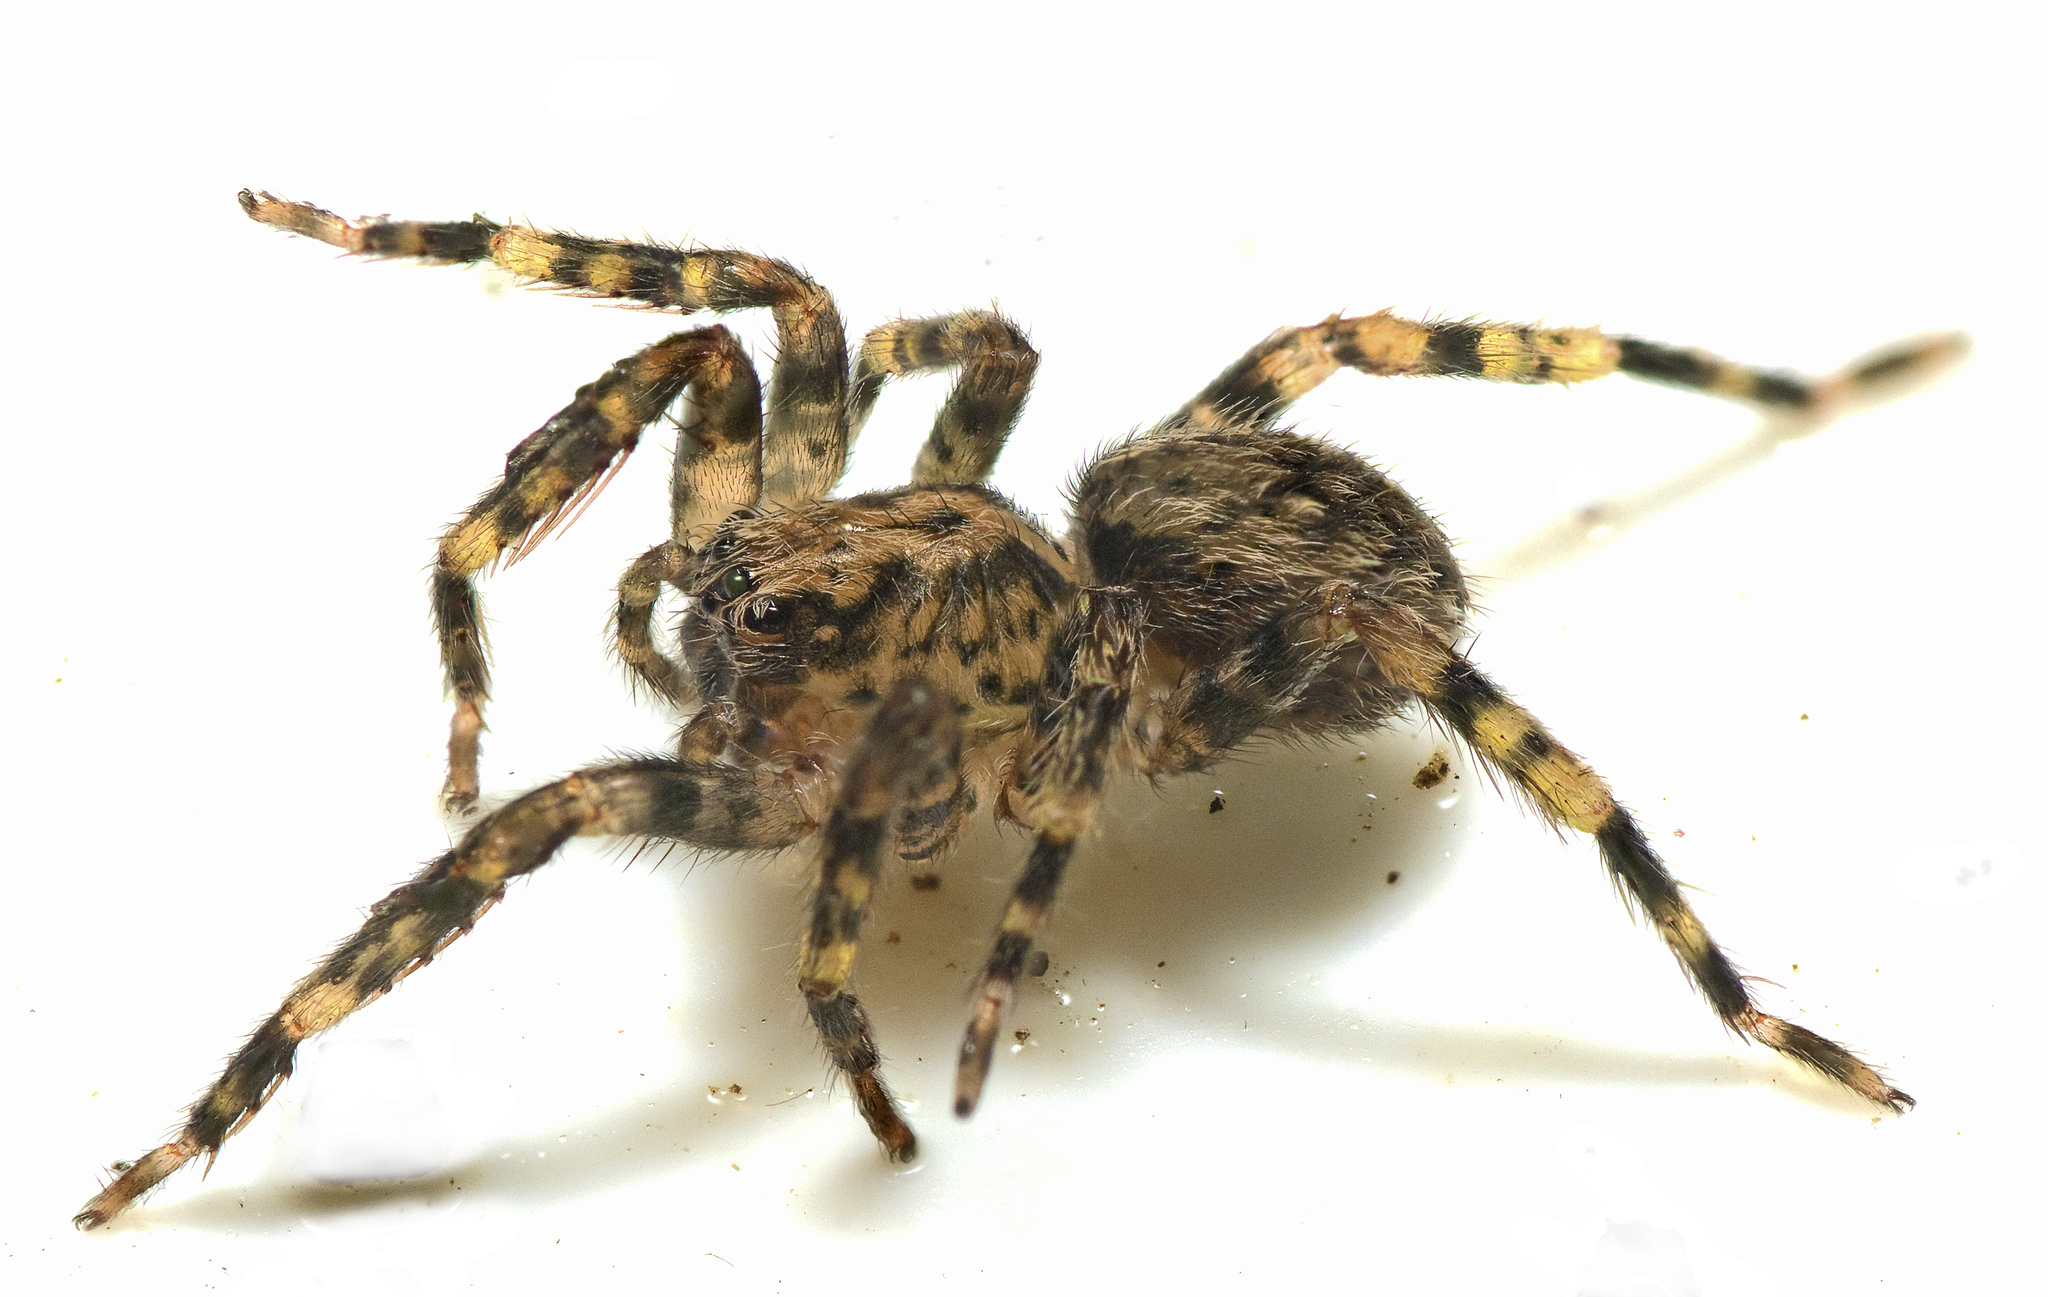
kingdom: Animalia
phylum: Arthropoda
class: Arachnida
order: Araneae
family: Zoropsidae
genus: Kilyana
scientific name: Kilyana hendersoni
